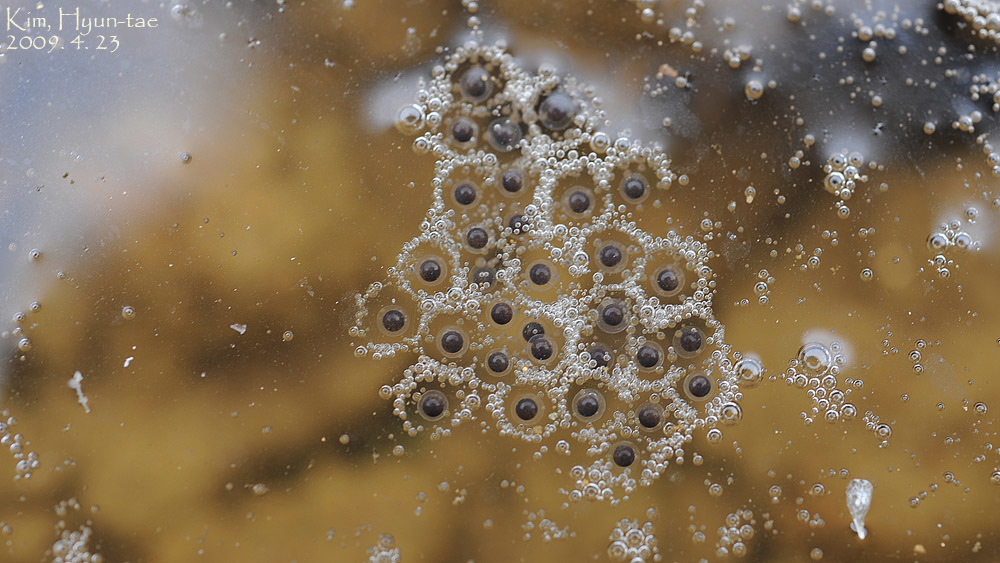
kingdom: Animalia
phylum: Chordata
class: Amphibia
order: Anura
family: Hylidae
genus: Dryophytes
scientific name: Dryophytes japonicus
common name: Japanese treefrog
